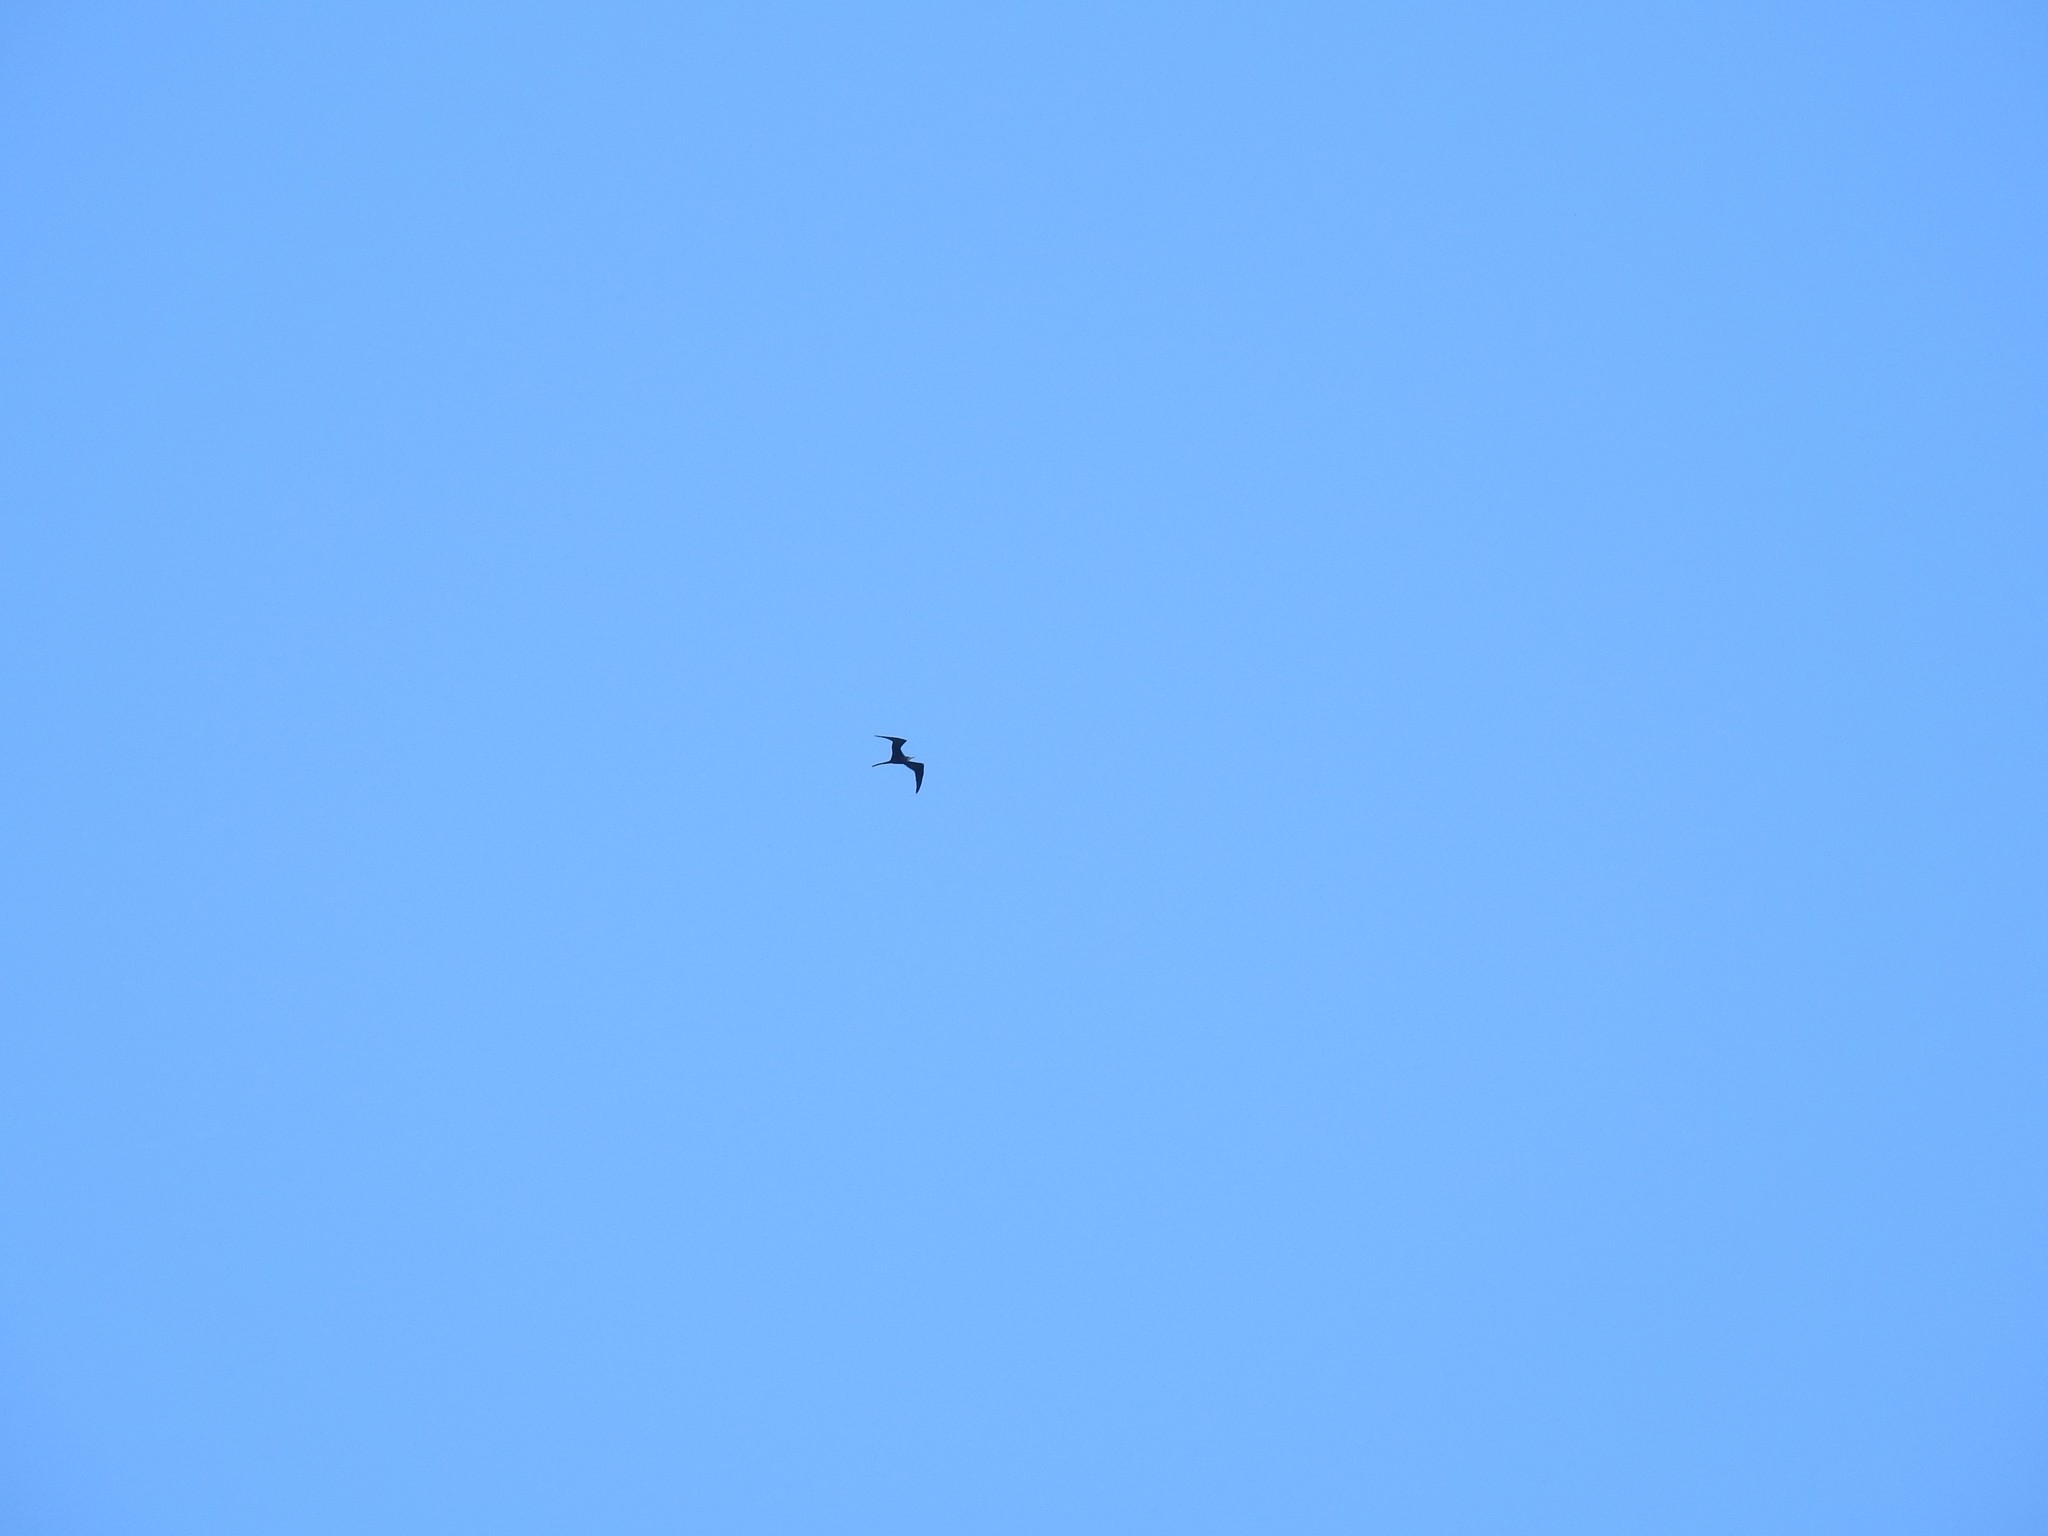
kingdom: Animalia
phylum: Chordata
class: Aves
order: Suliformes
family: Fregatidae
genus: Fregata
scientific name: Fregata magnificens
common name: Magnificent frigatebird
